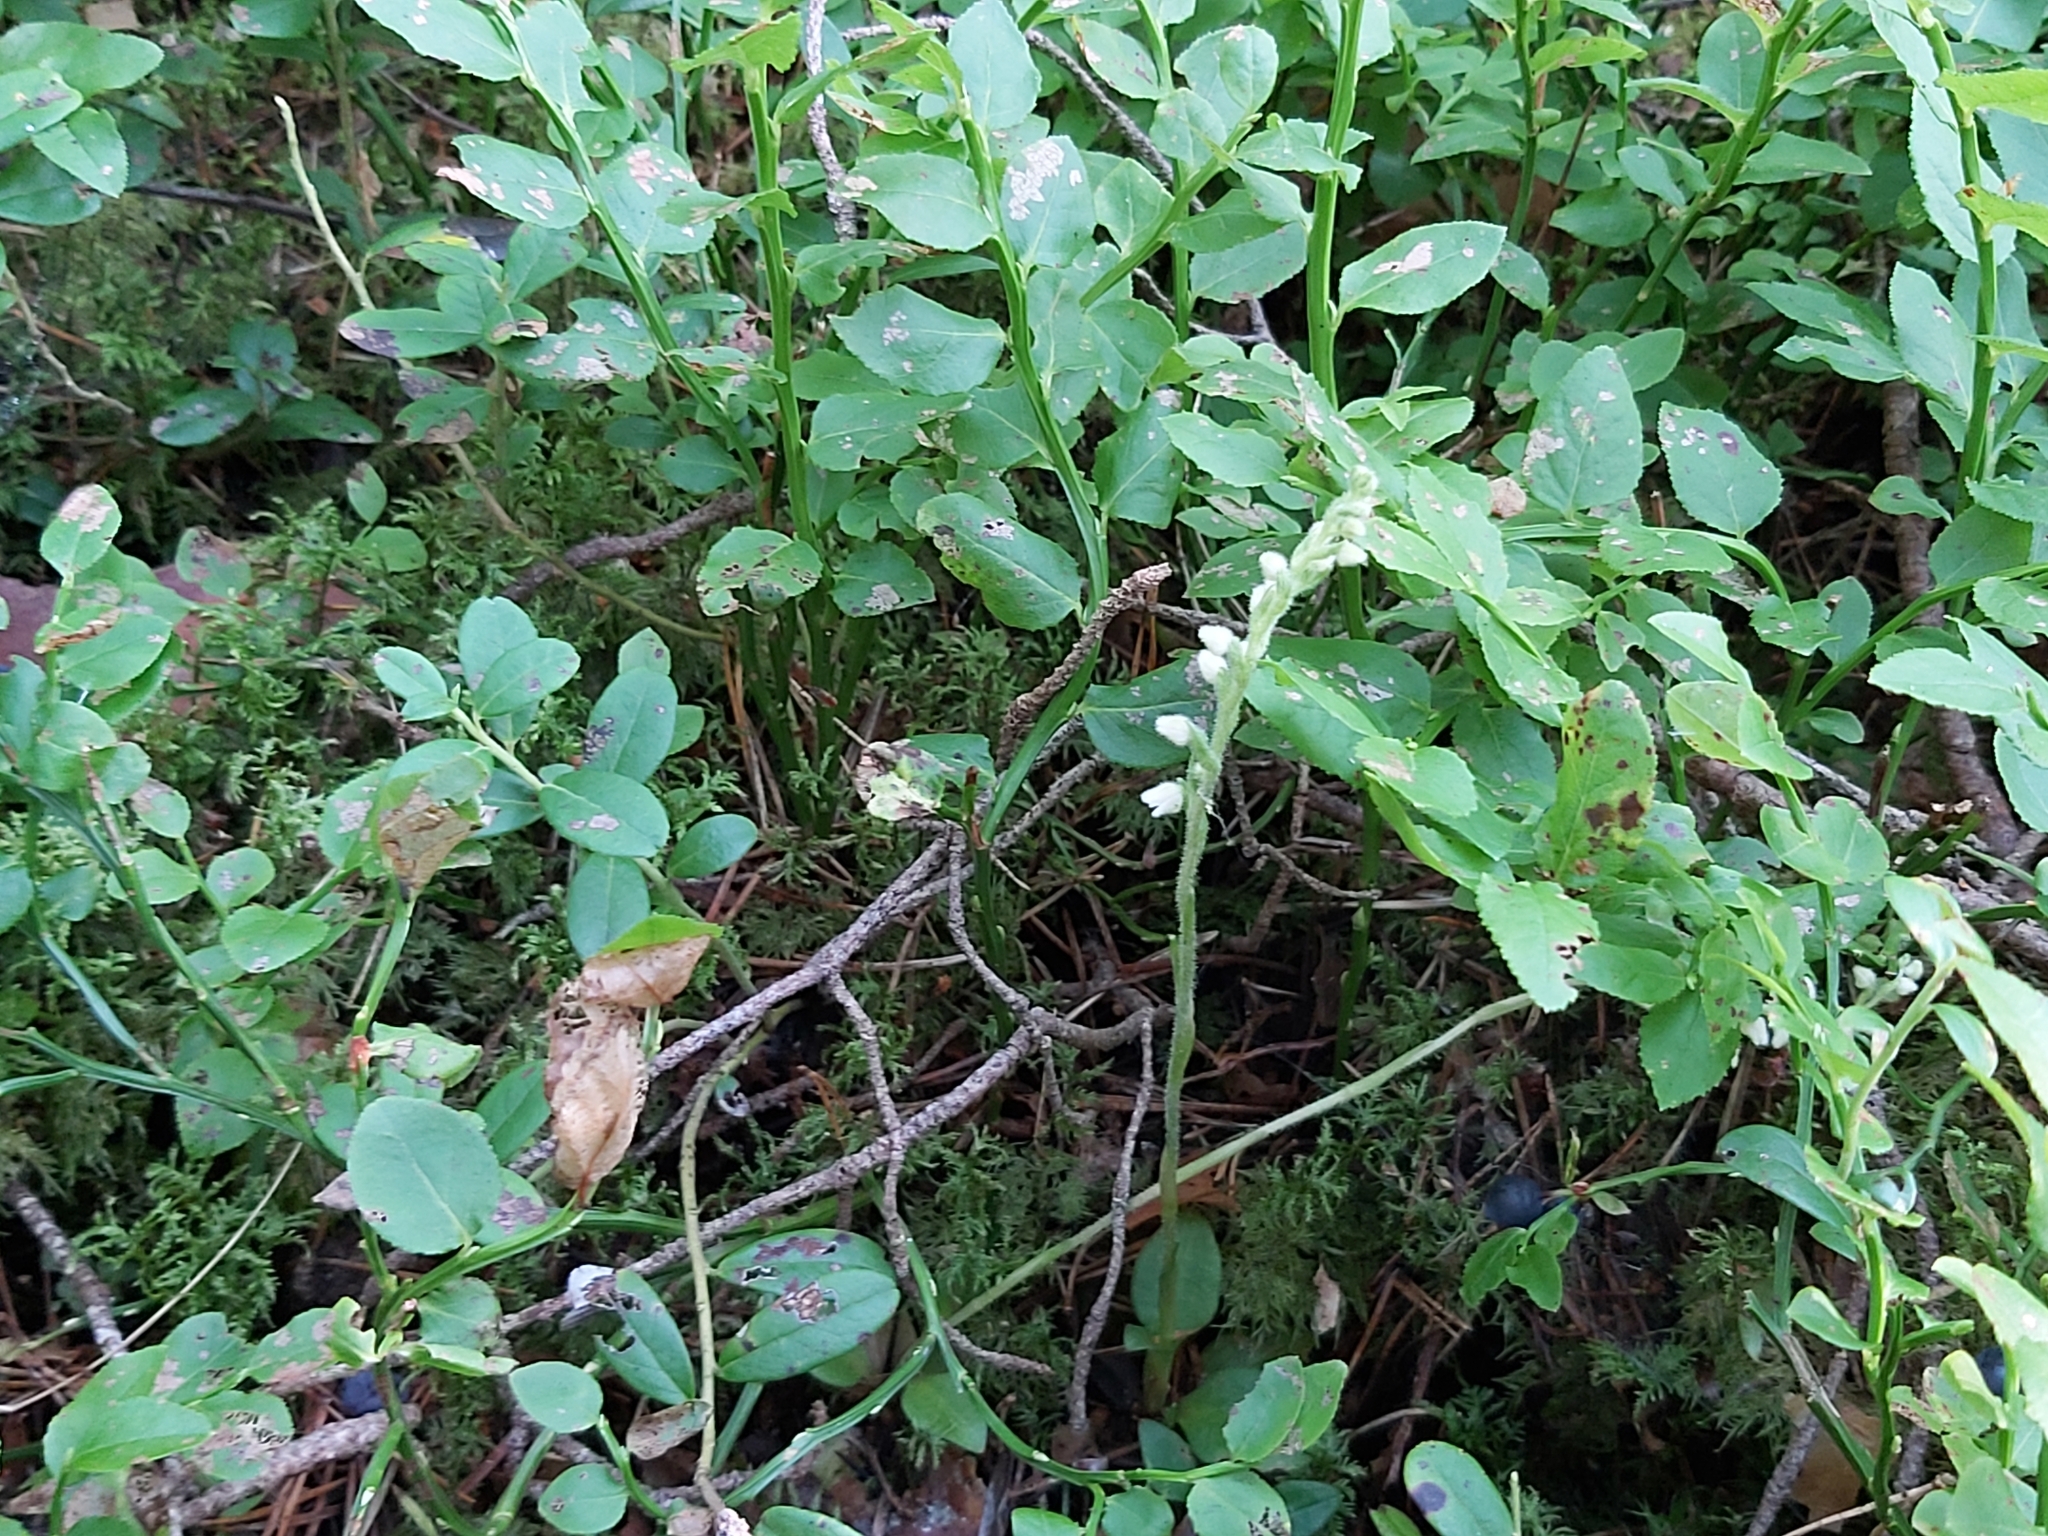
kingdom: Plantae
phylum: Tracheophyta
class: Liliopsida
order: Asparagales
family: Orchidaceae
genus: Goodyera
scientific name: Goodyera repens
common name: Creeping lady's-tresses
